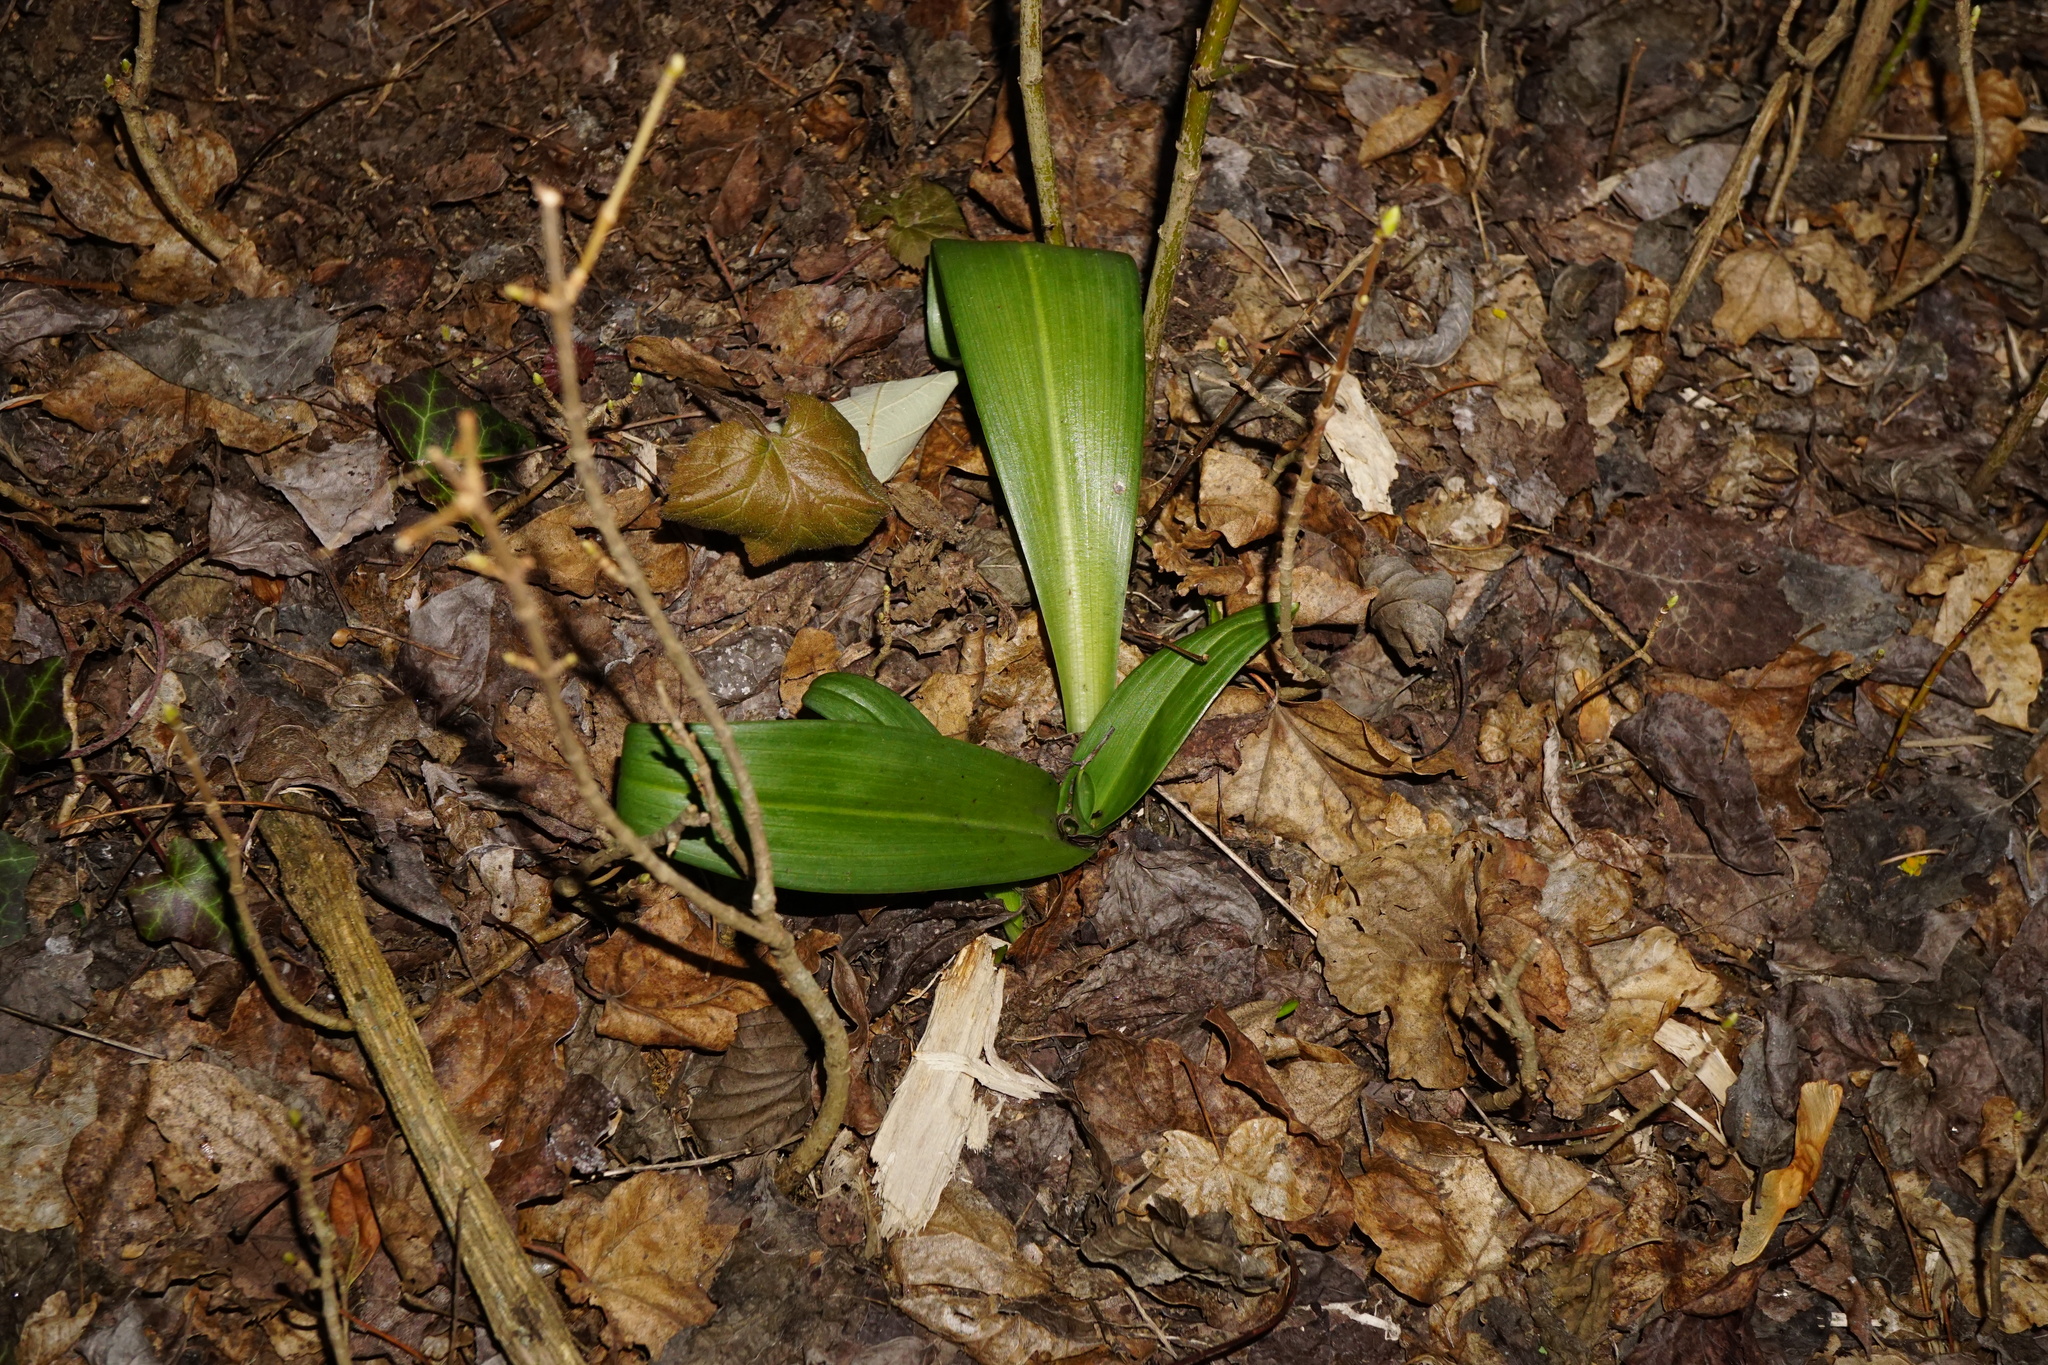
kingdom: Plantae
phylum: Tracheophyta
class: Liliopsida
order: Asparagales
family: Orchidaceae
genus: Himantoglossum
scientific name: Himantoglossum adriaticum
